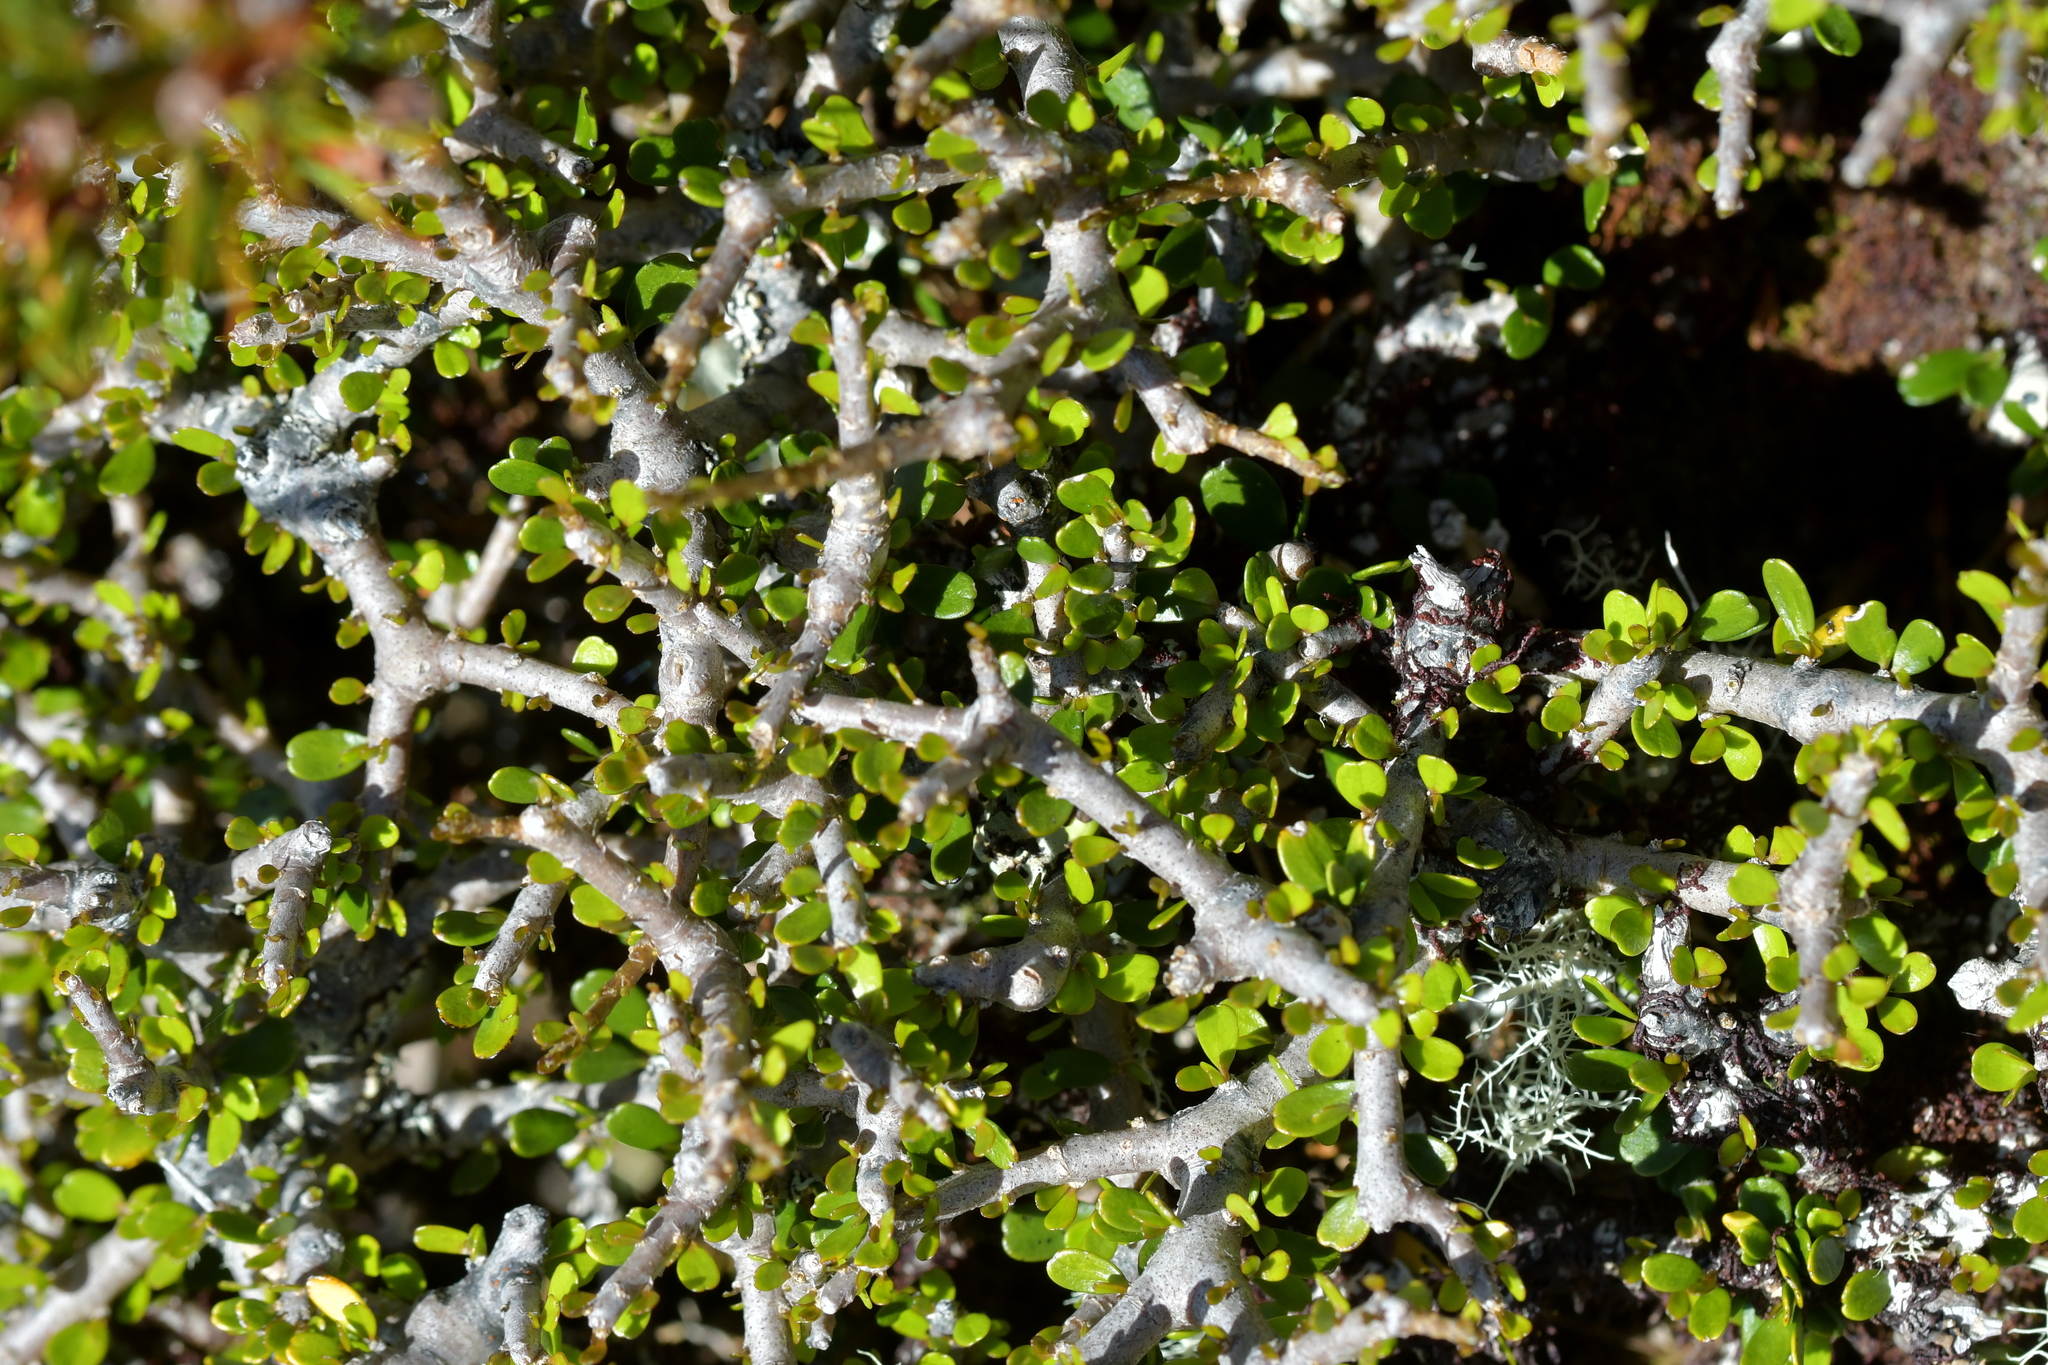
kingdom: Plantae
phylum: Tracheophyta
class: Magnoliopsida
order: Malpighiales
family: Violaceae
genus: Melicytus
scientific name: Melicytus alpinus
